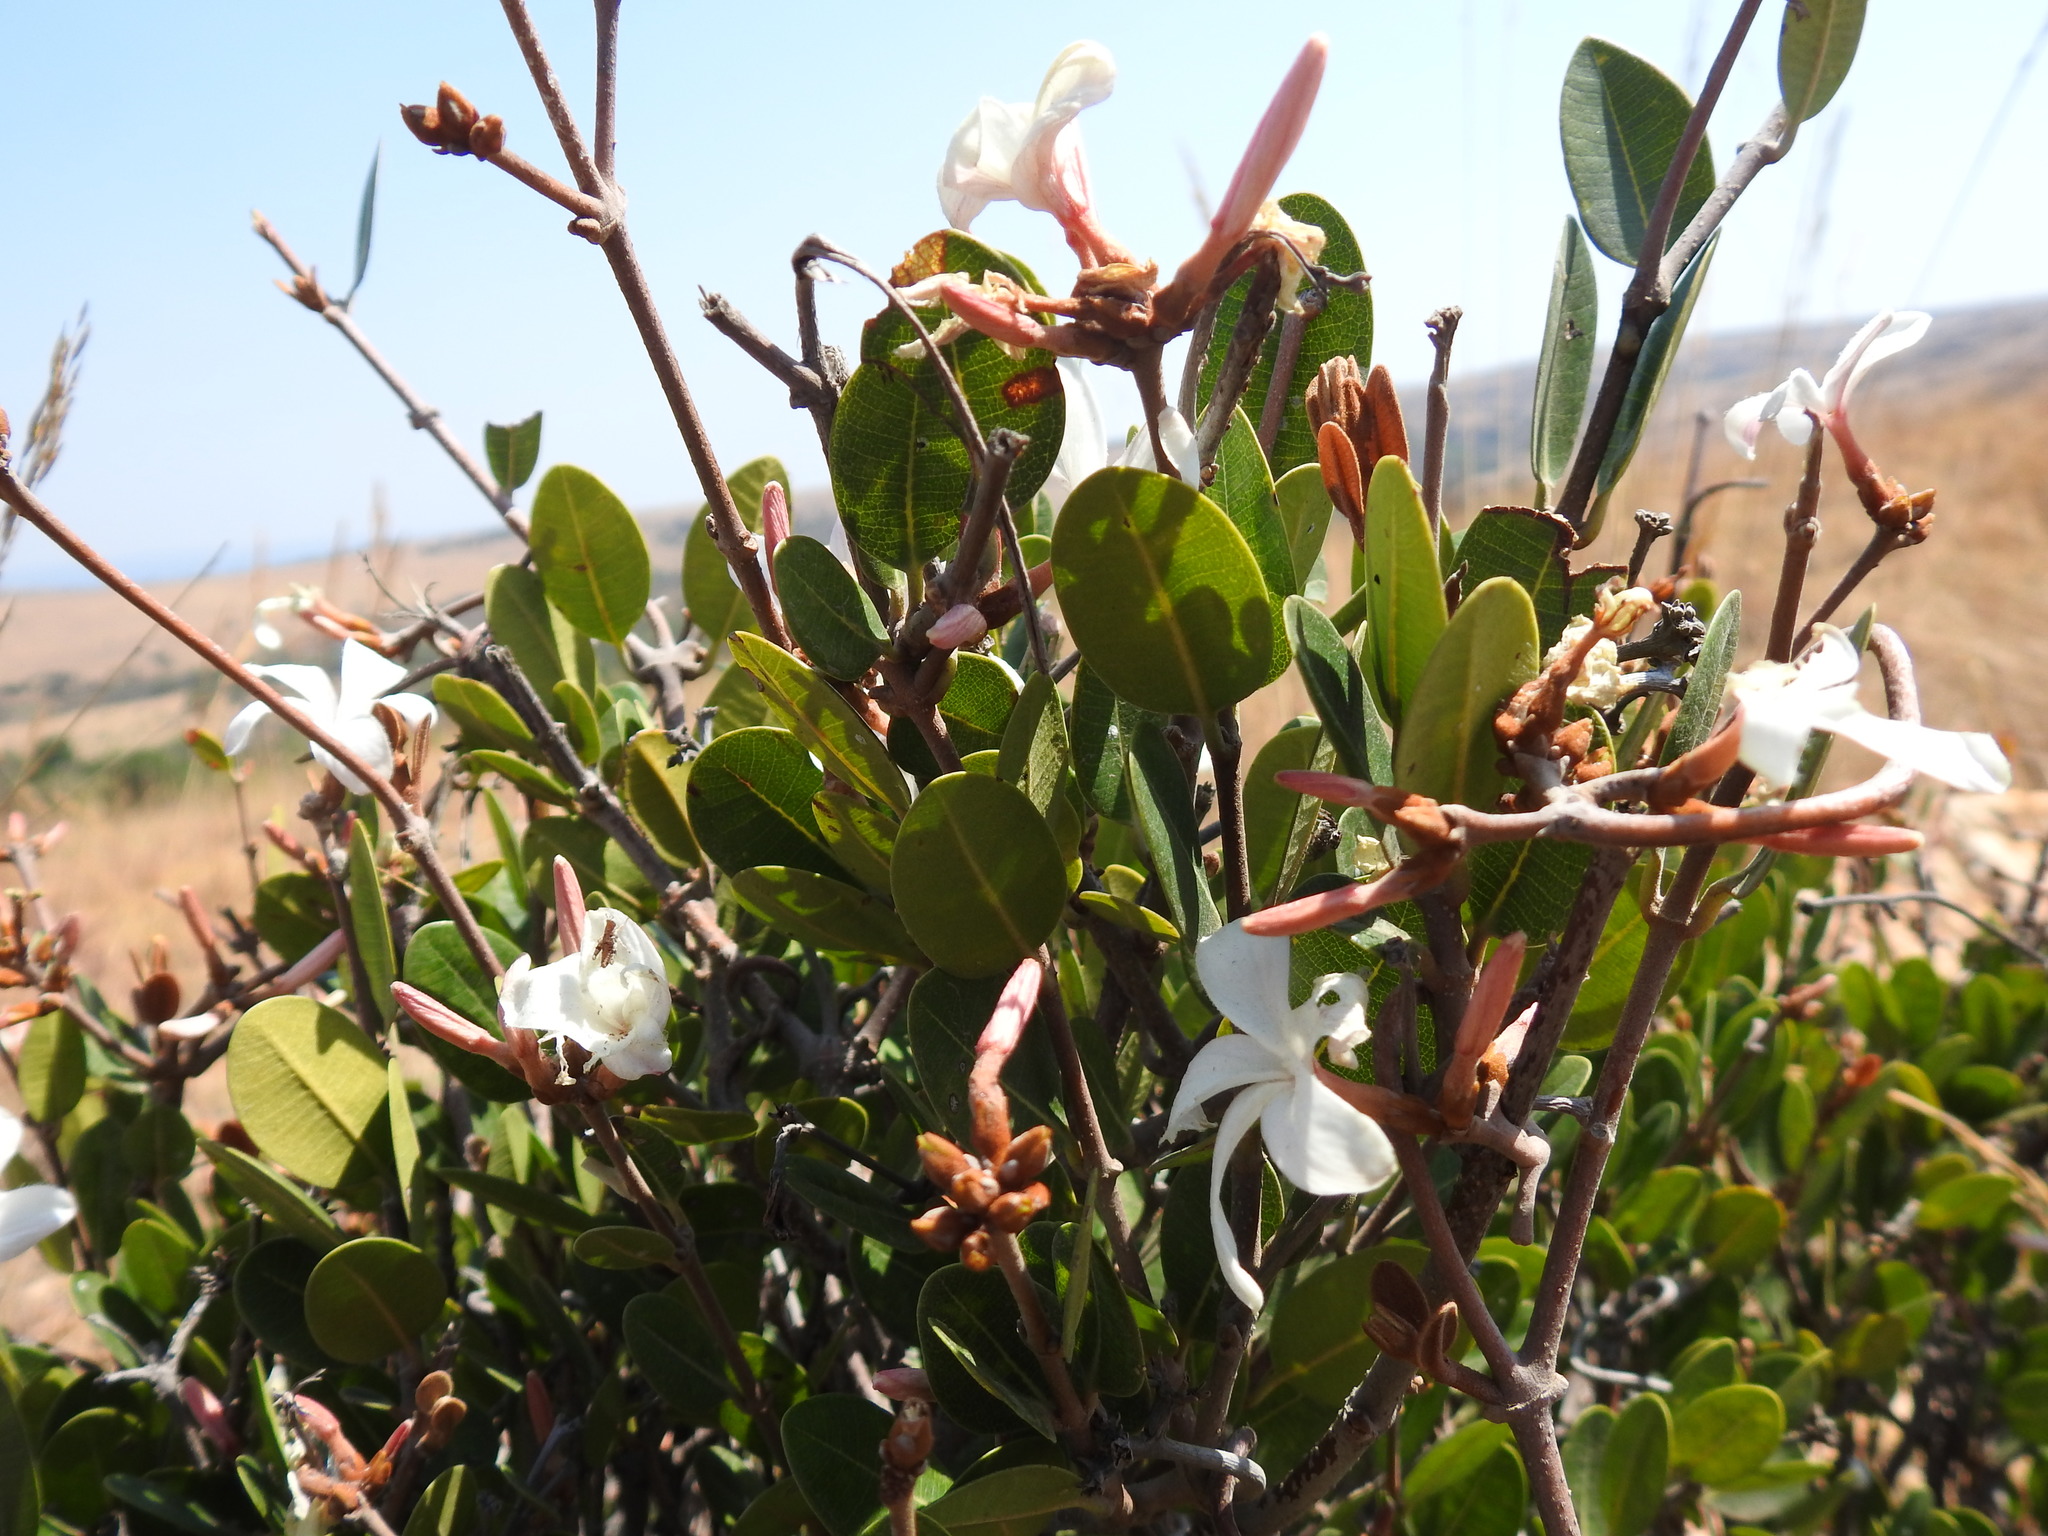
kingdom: Plantae
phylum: Tracheophyta
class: Magnoliopsida
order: Gentianales
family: Apocynaceae
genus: Ancylobothrys
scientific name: Ancylobothrys capensis
